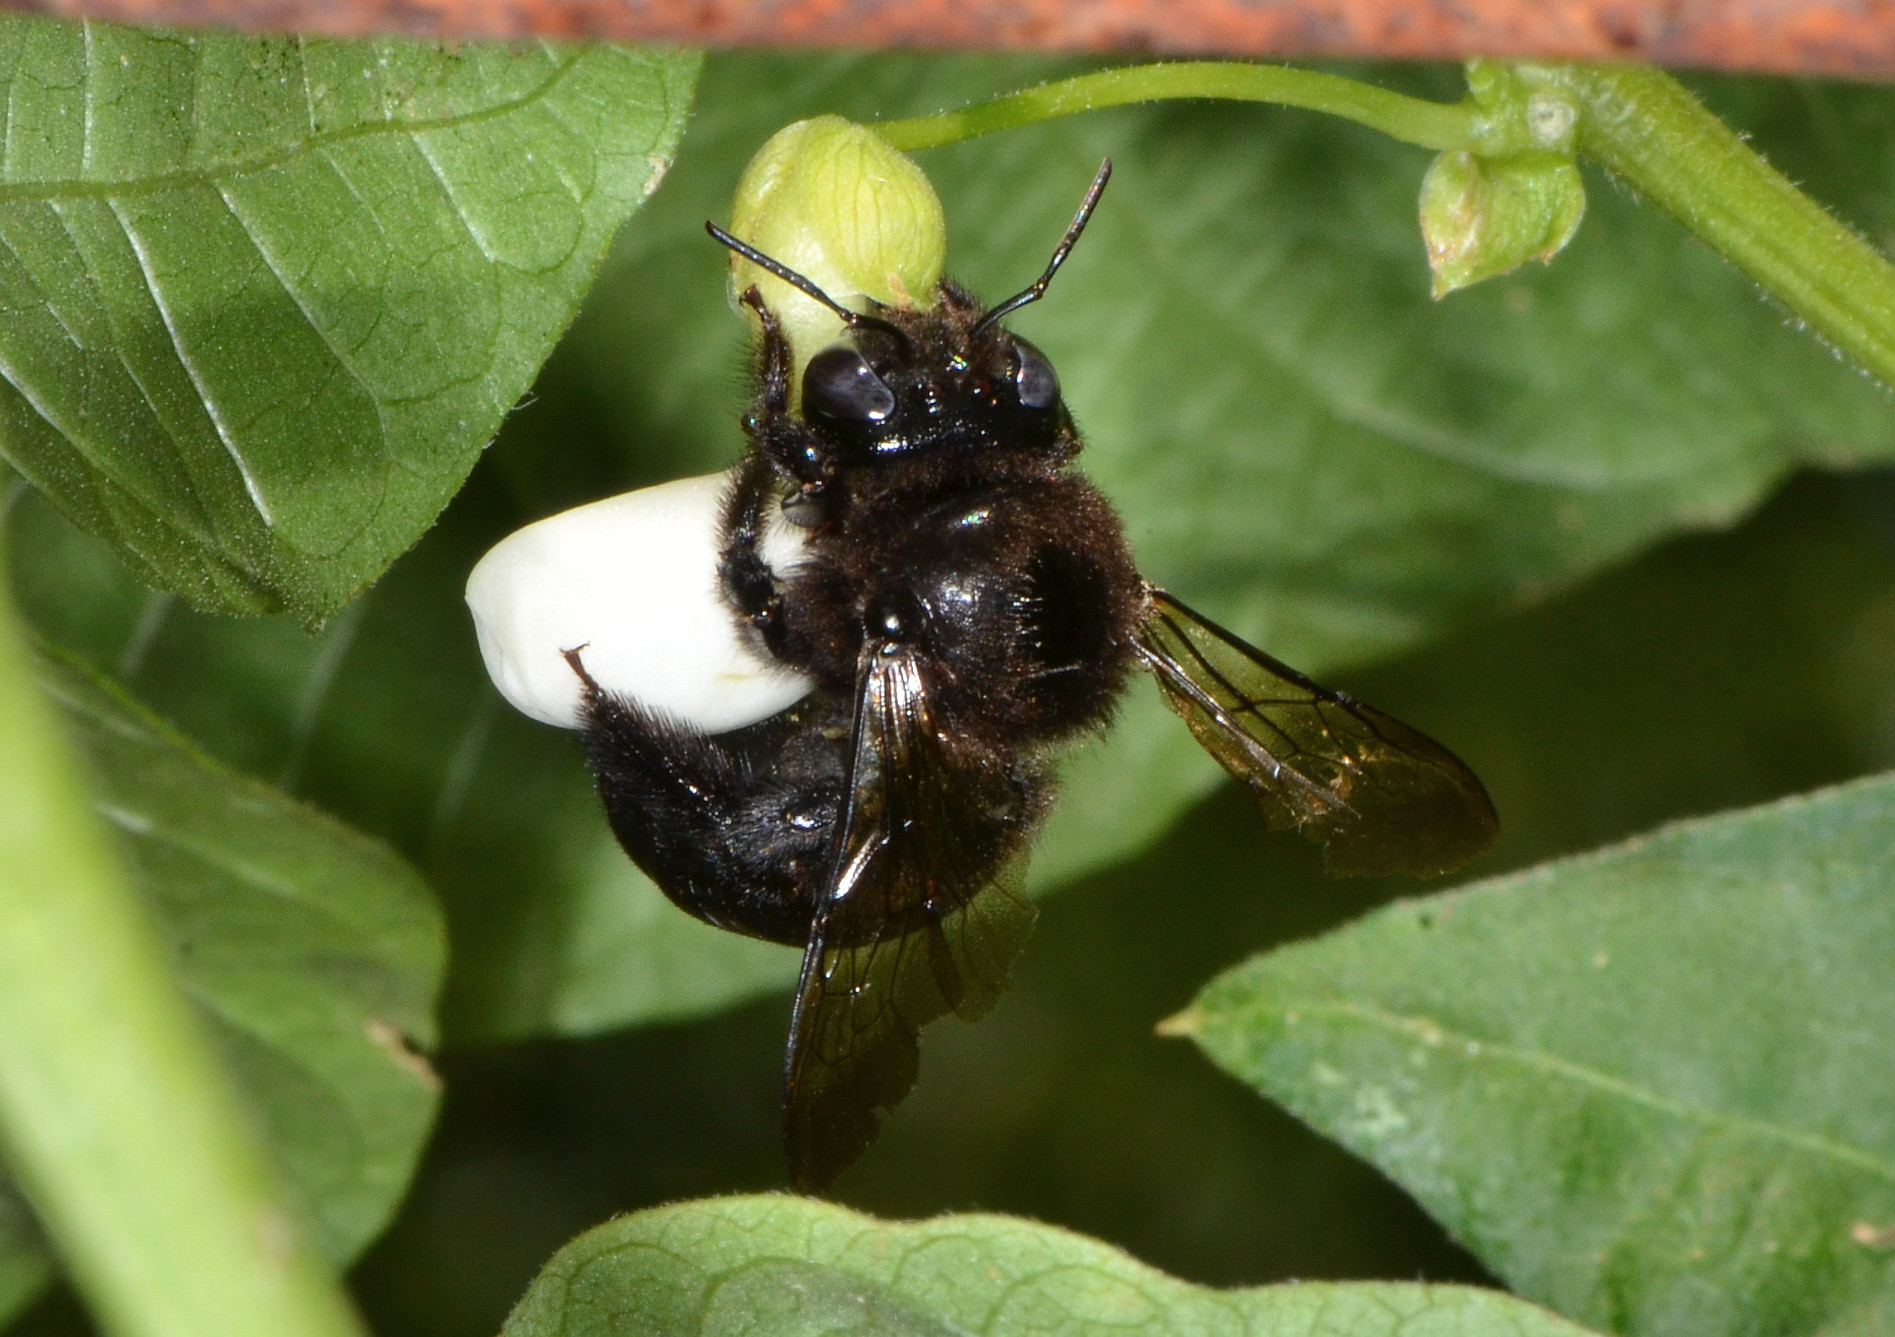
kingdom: Animalia
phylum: Arthropoda
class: Insecta
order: Hymenoptera
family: Apidae
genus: Xylocopa
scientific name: Xylocopa tabaniformis
